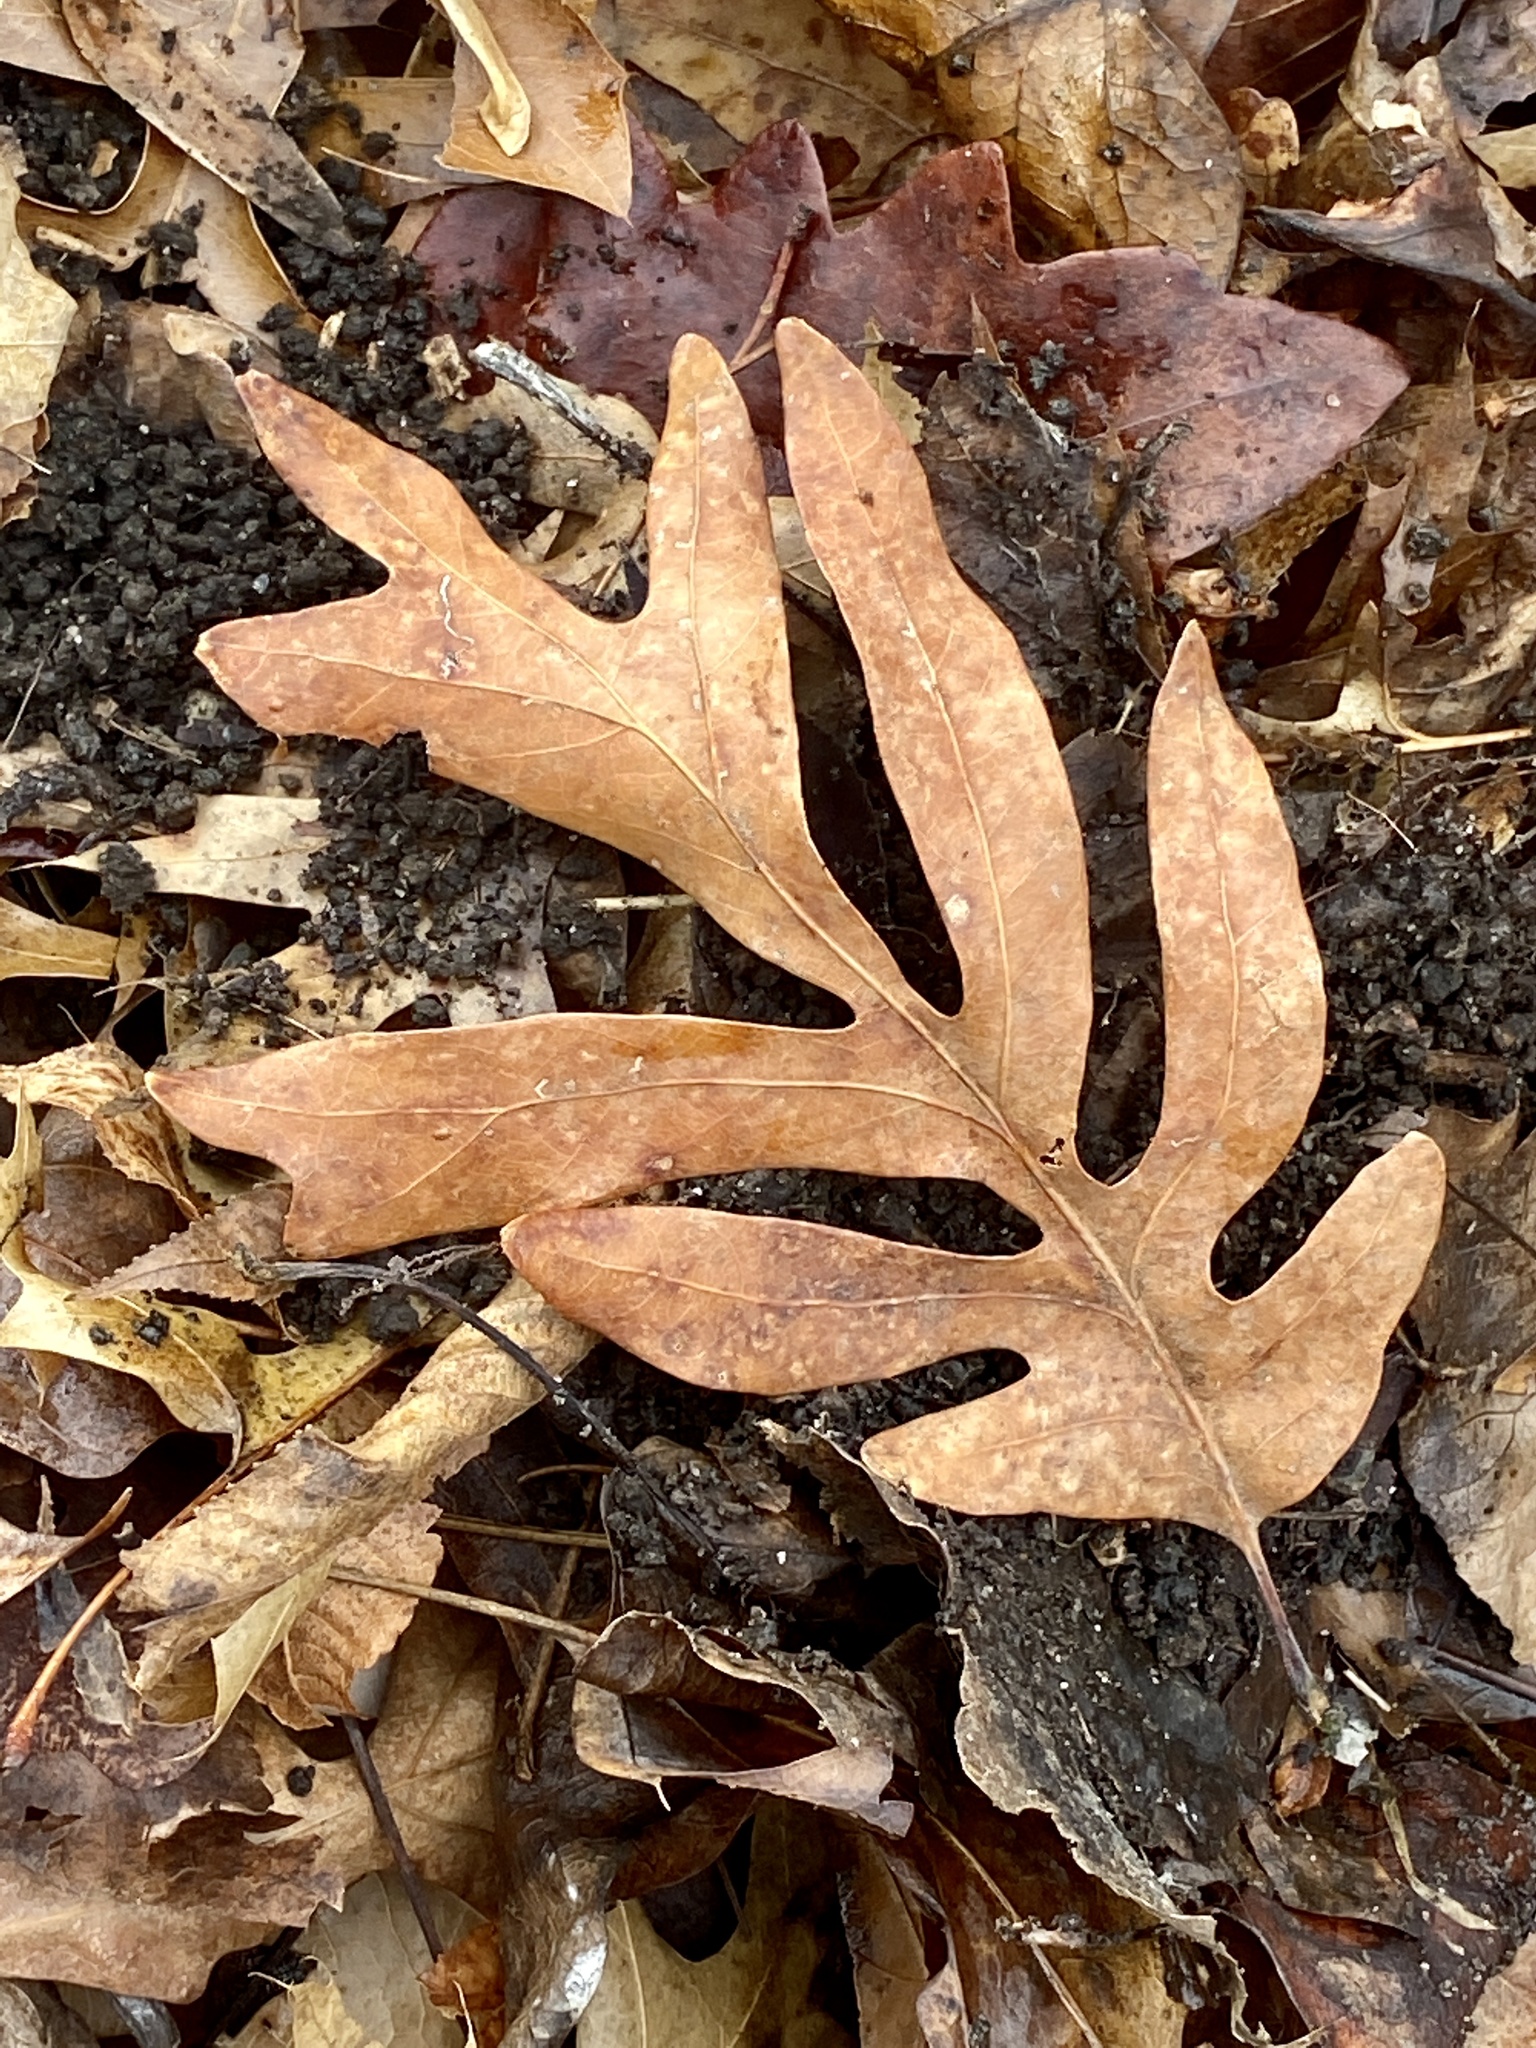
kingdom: Plantae
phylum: Tracheophyta
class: Magnoliopsida
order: Fagales
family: Fagaceae
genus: Quercus
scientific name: Quercus alba
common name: White oak
